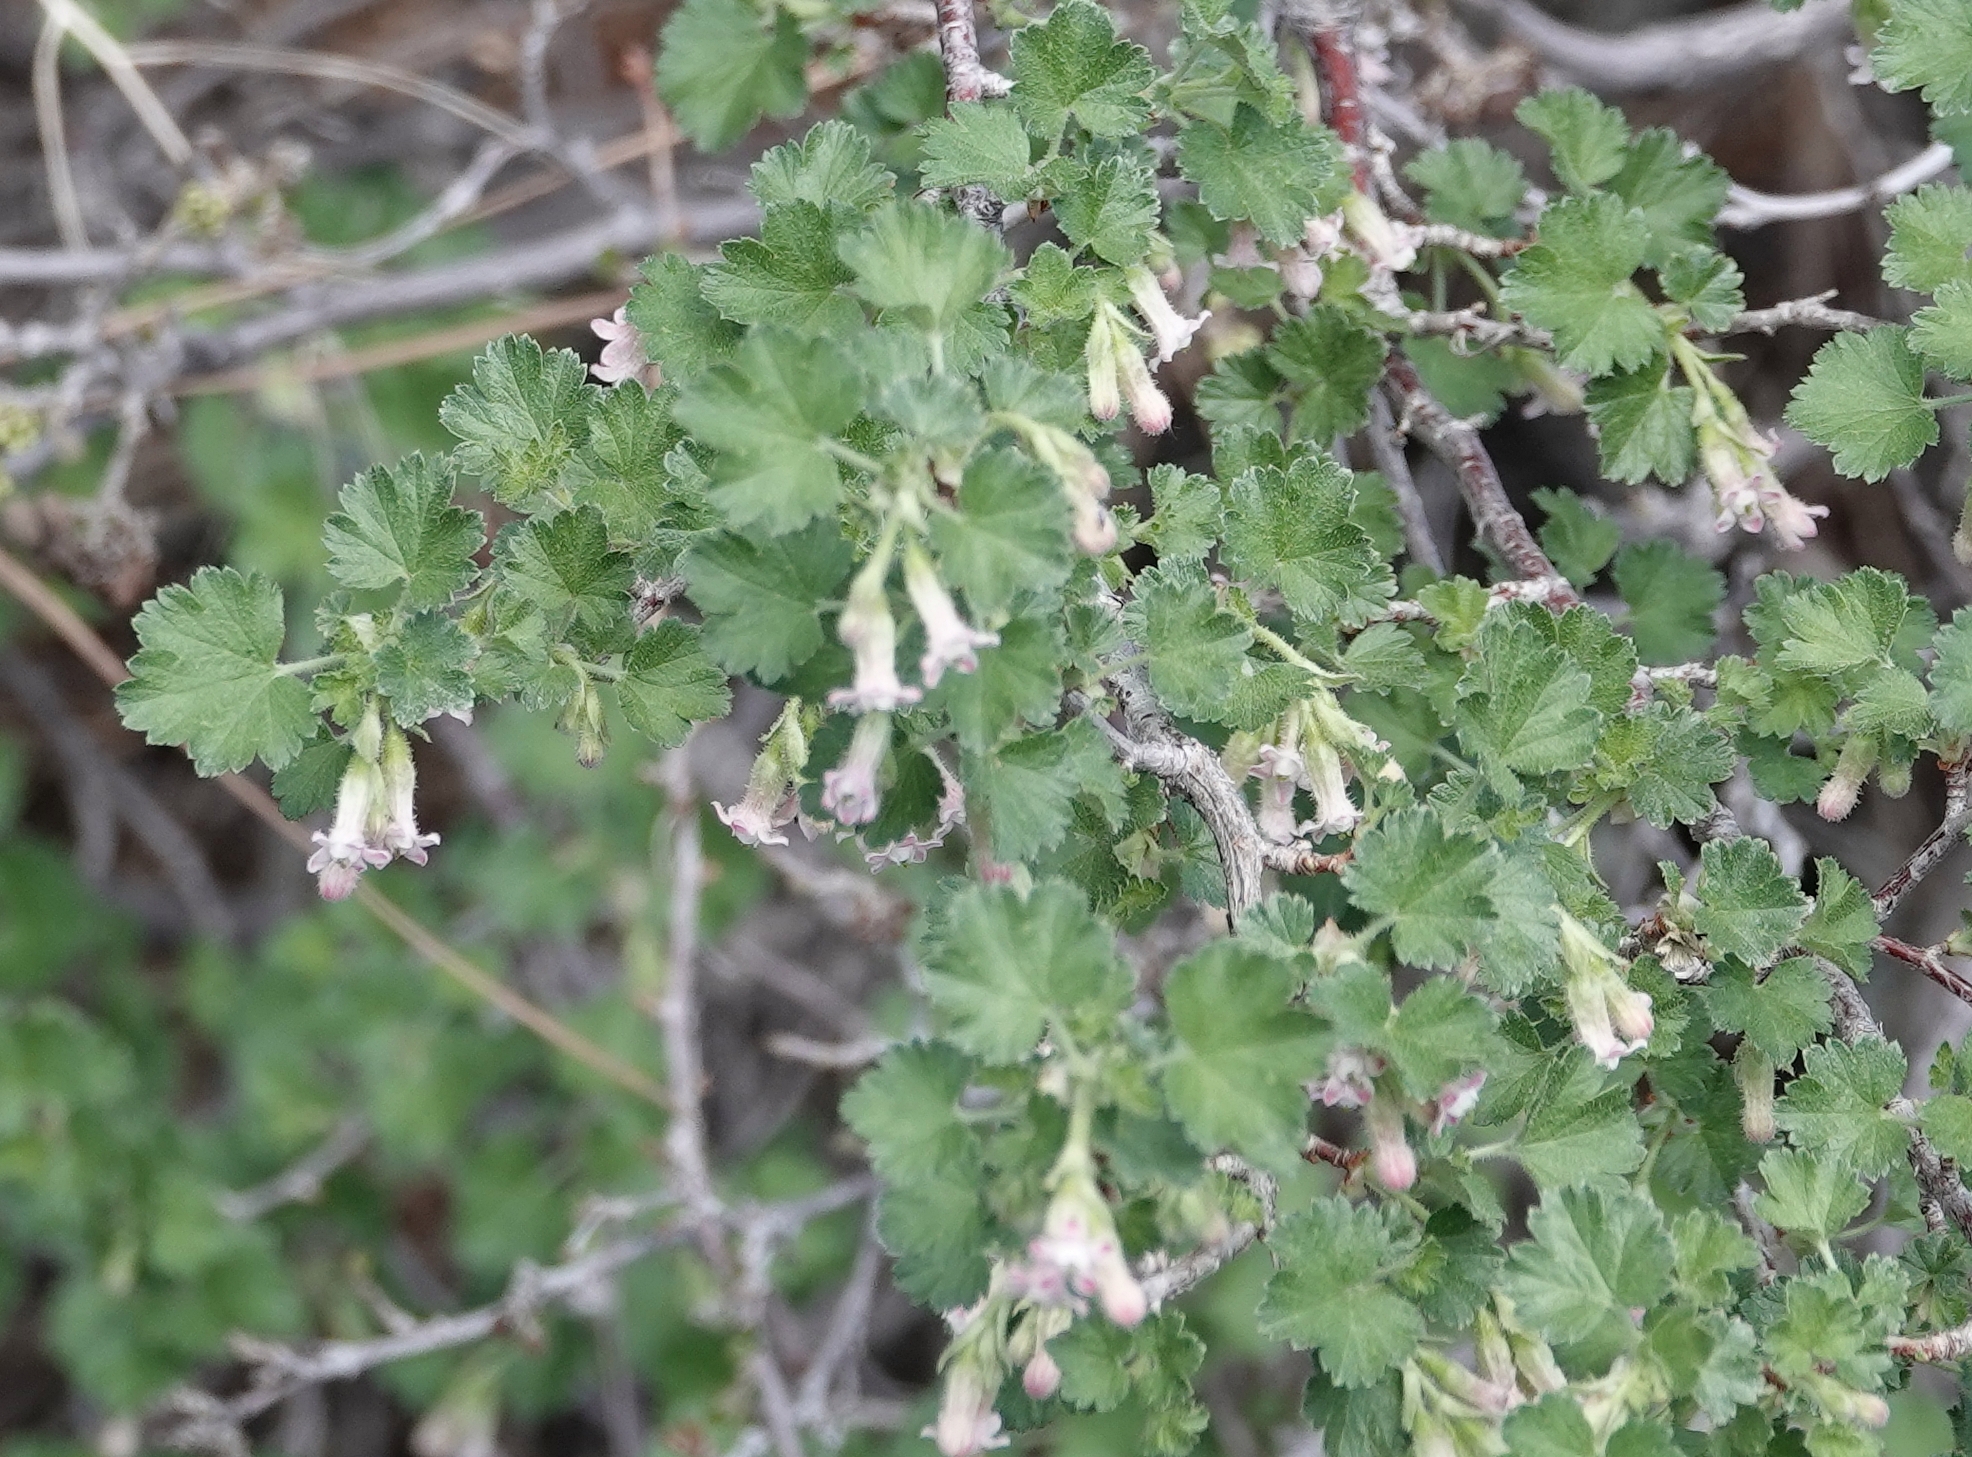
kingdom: Plantae
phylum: Tracheophyta
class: Magnoliopsida
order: Saxifragales
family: Grossulariaceae
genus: Ribes
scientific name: Ribes cereum
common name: Wax currant
